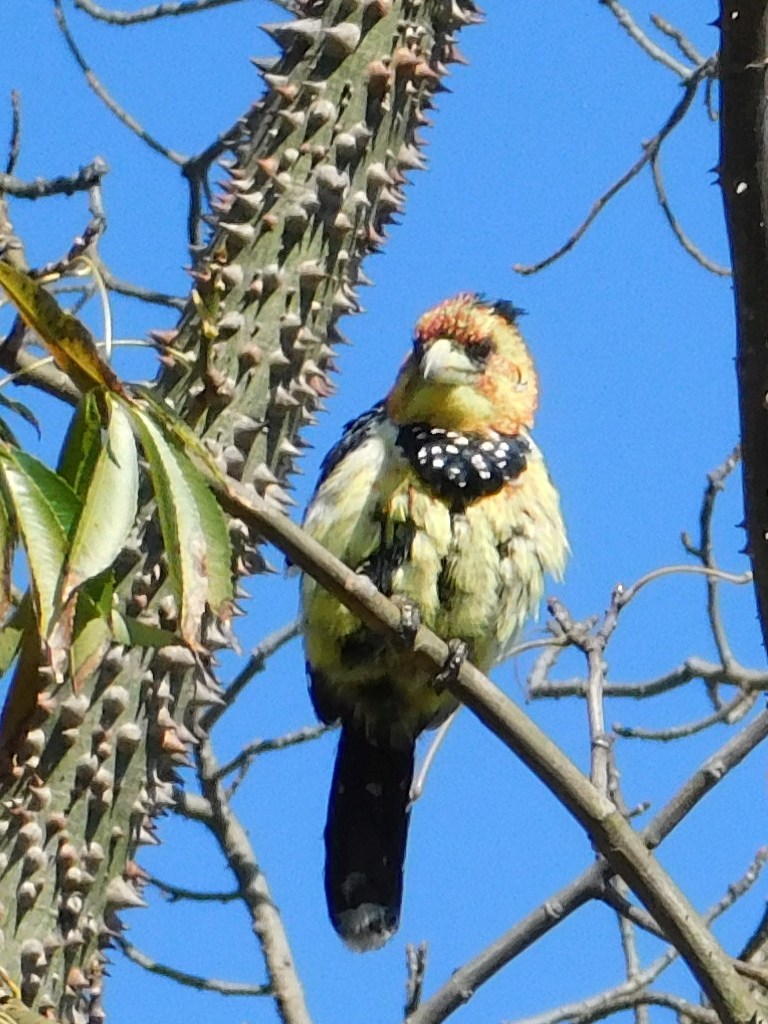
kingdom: Animalia
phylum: Chordata
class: Aves
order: Piciformes
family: Lybiidae
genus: Trachyphonus
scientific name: Trachyphonus vaillantii
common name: Crested barbet
